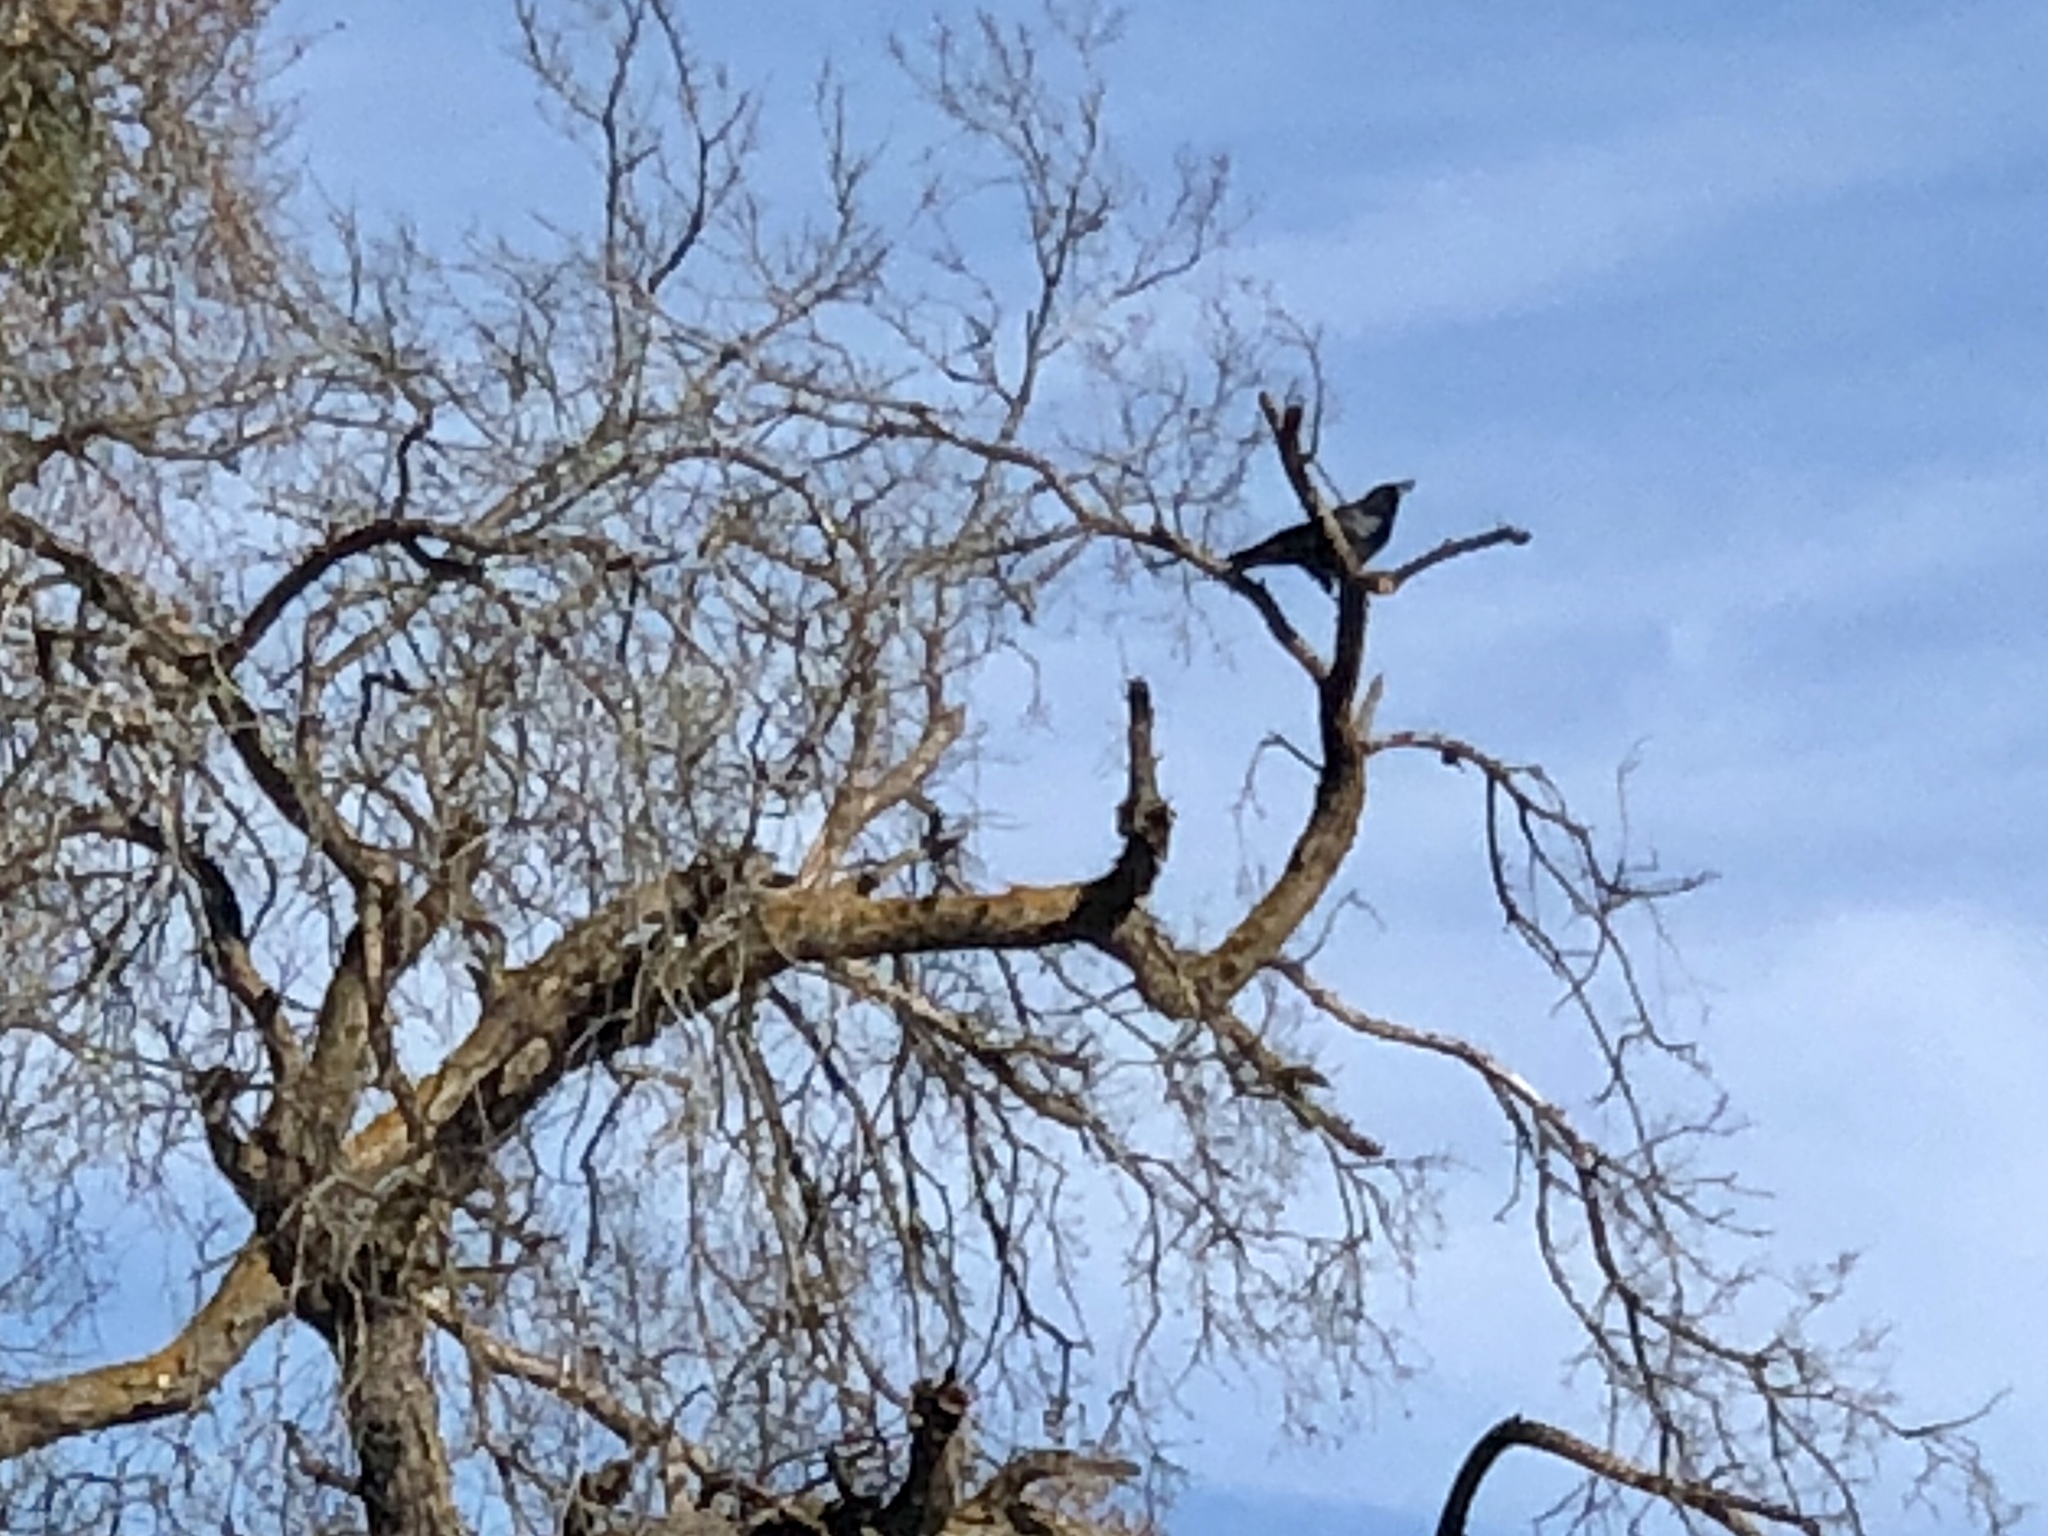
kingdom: Animalia
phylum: Chordata
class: Aves
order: Passeriformes
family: Corvidae
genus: Corvus
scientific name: Corvus brachyrhynchos
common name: American crow
